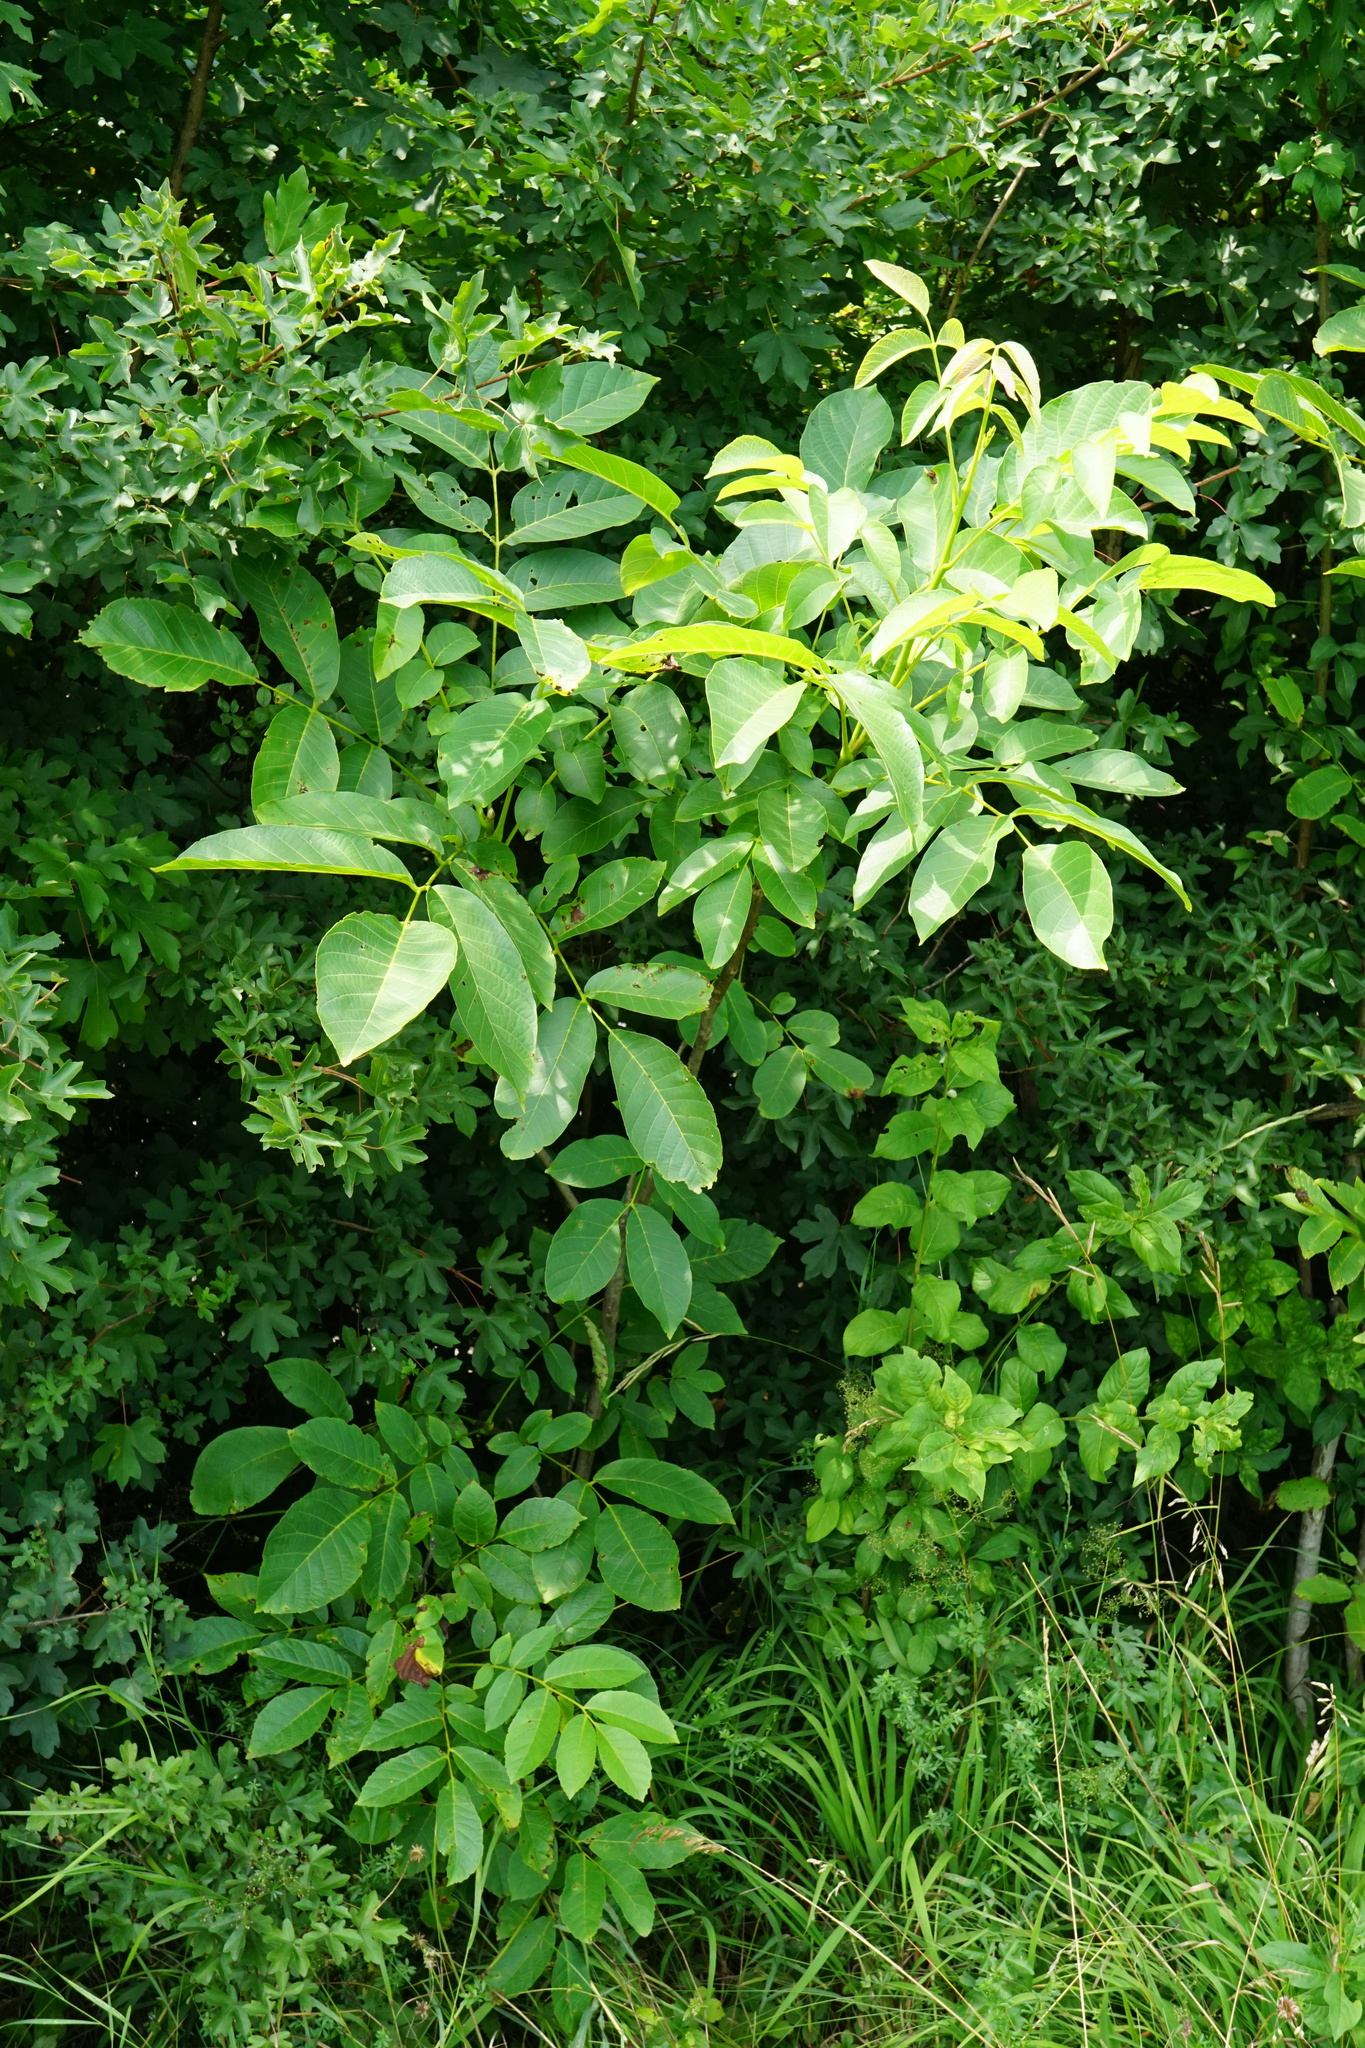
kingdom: Plantae
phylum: Tracheophyta
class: Magnoliopsida
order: Fagales
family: Juglandaceae
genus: Juglans
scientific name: Juglans regia
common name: Walnut
